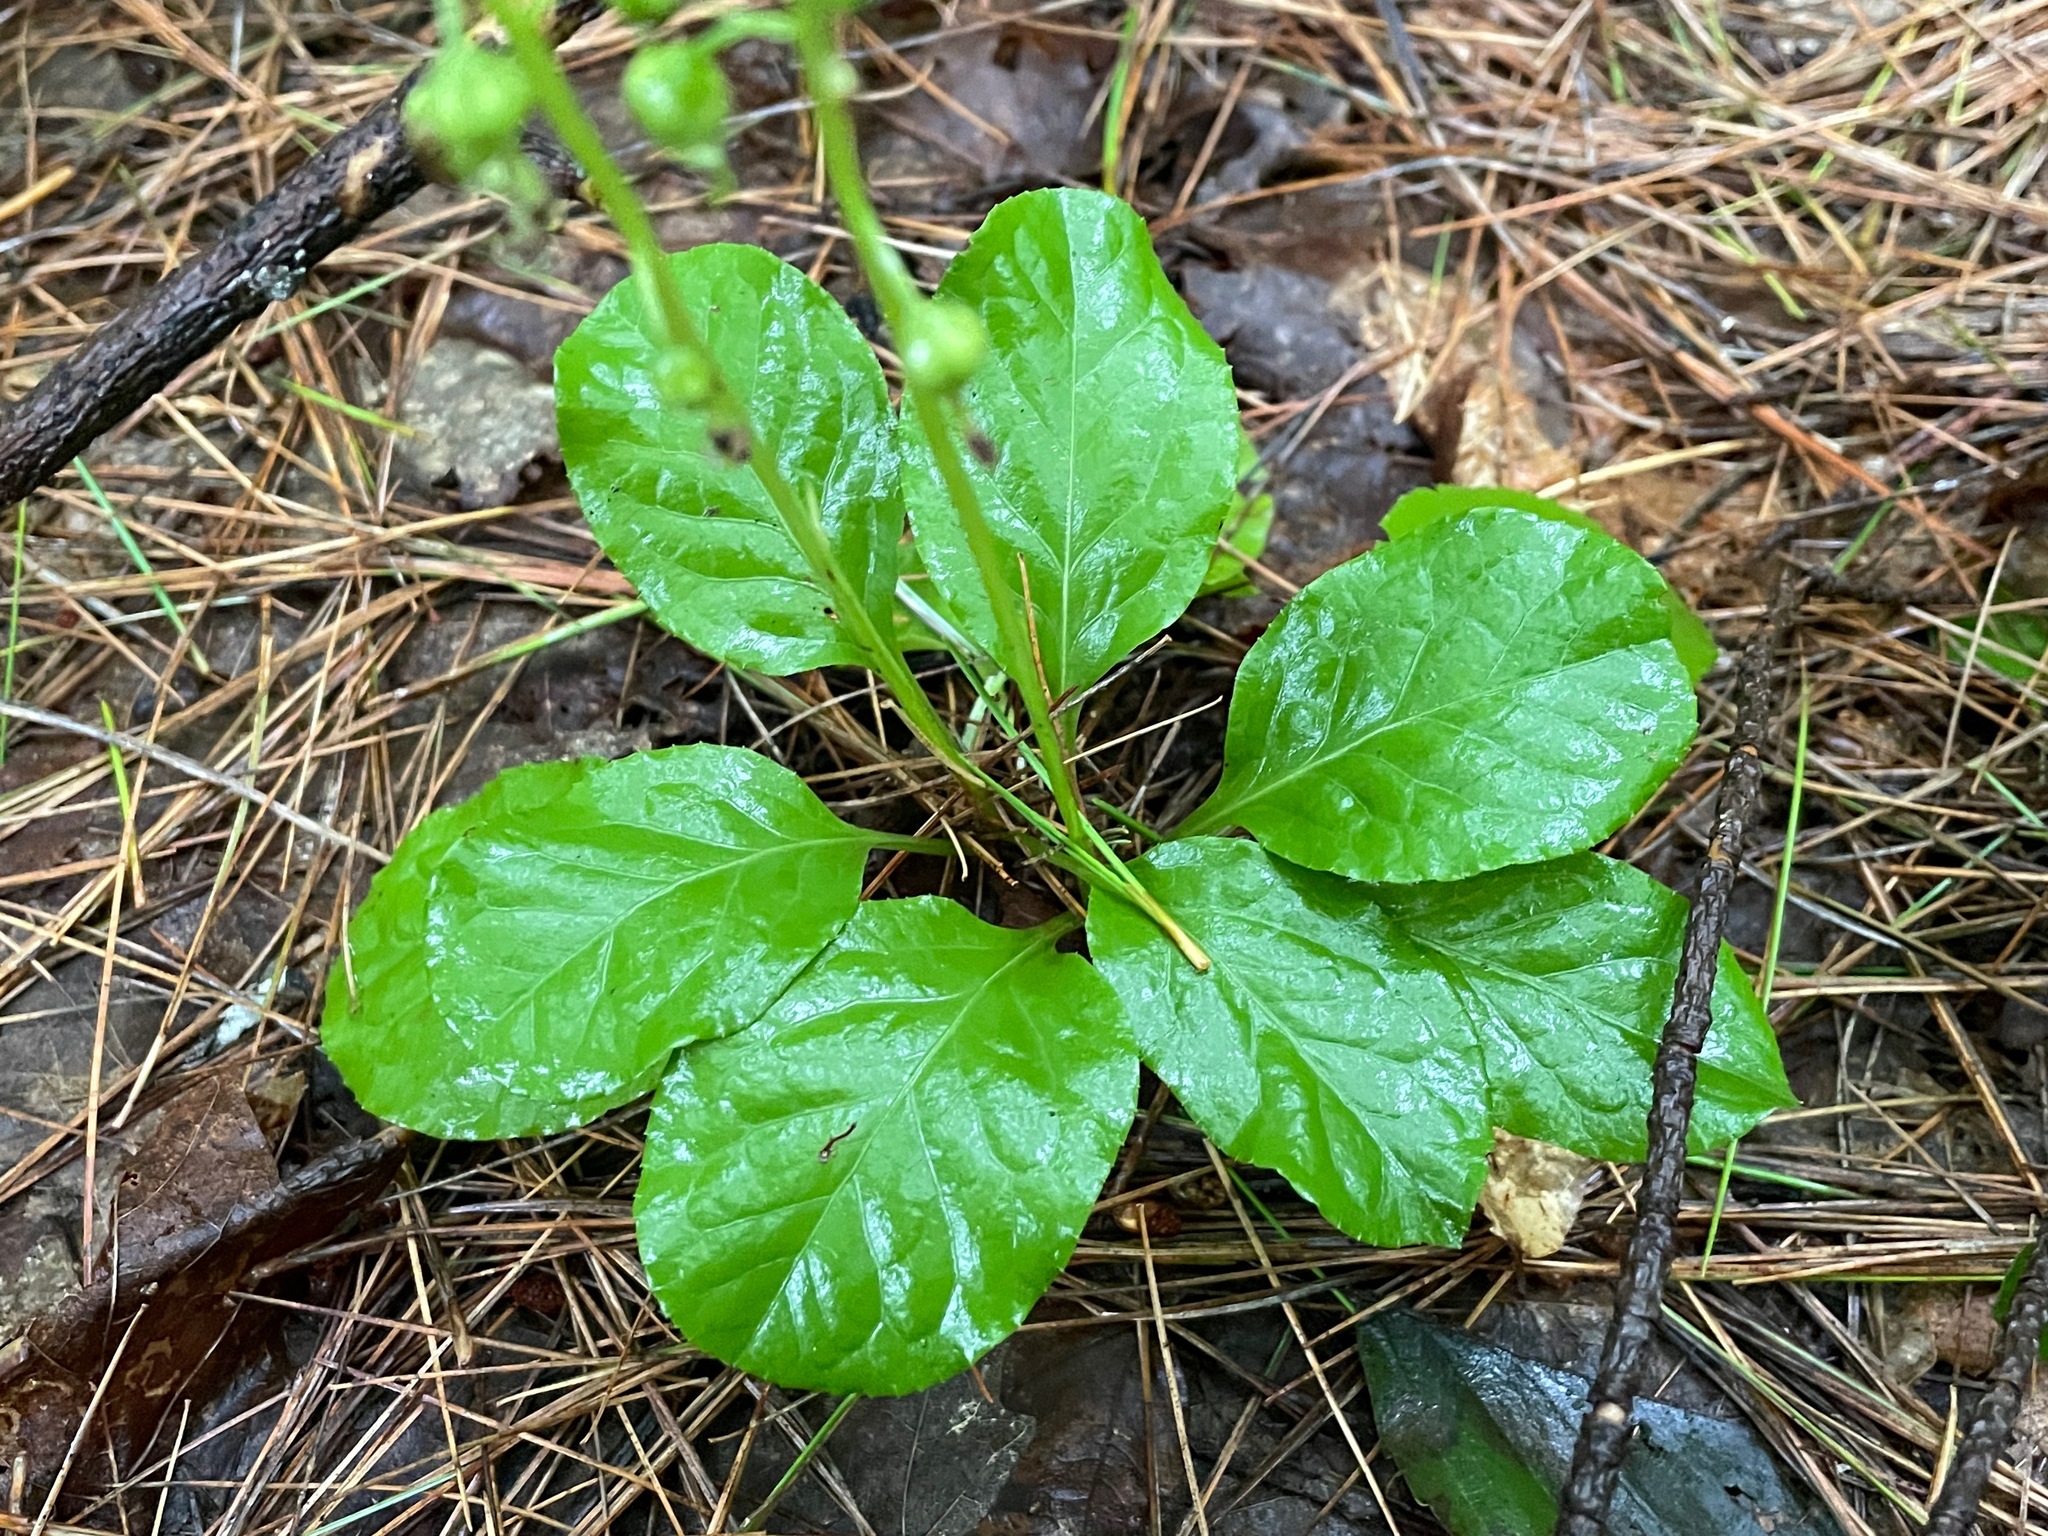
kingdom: Plantae
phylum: Tracheophyta
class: Magnoliopsida
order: Ericales
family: Ericaceae
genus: Pyrola
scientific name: Pyrola elliptica
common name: Shinleaf
